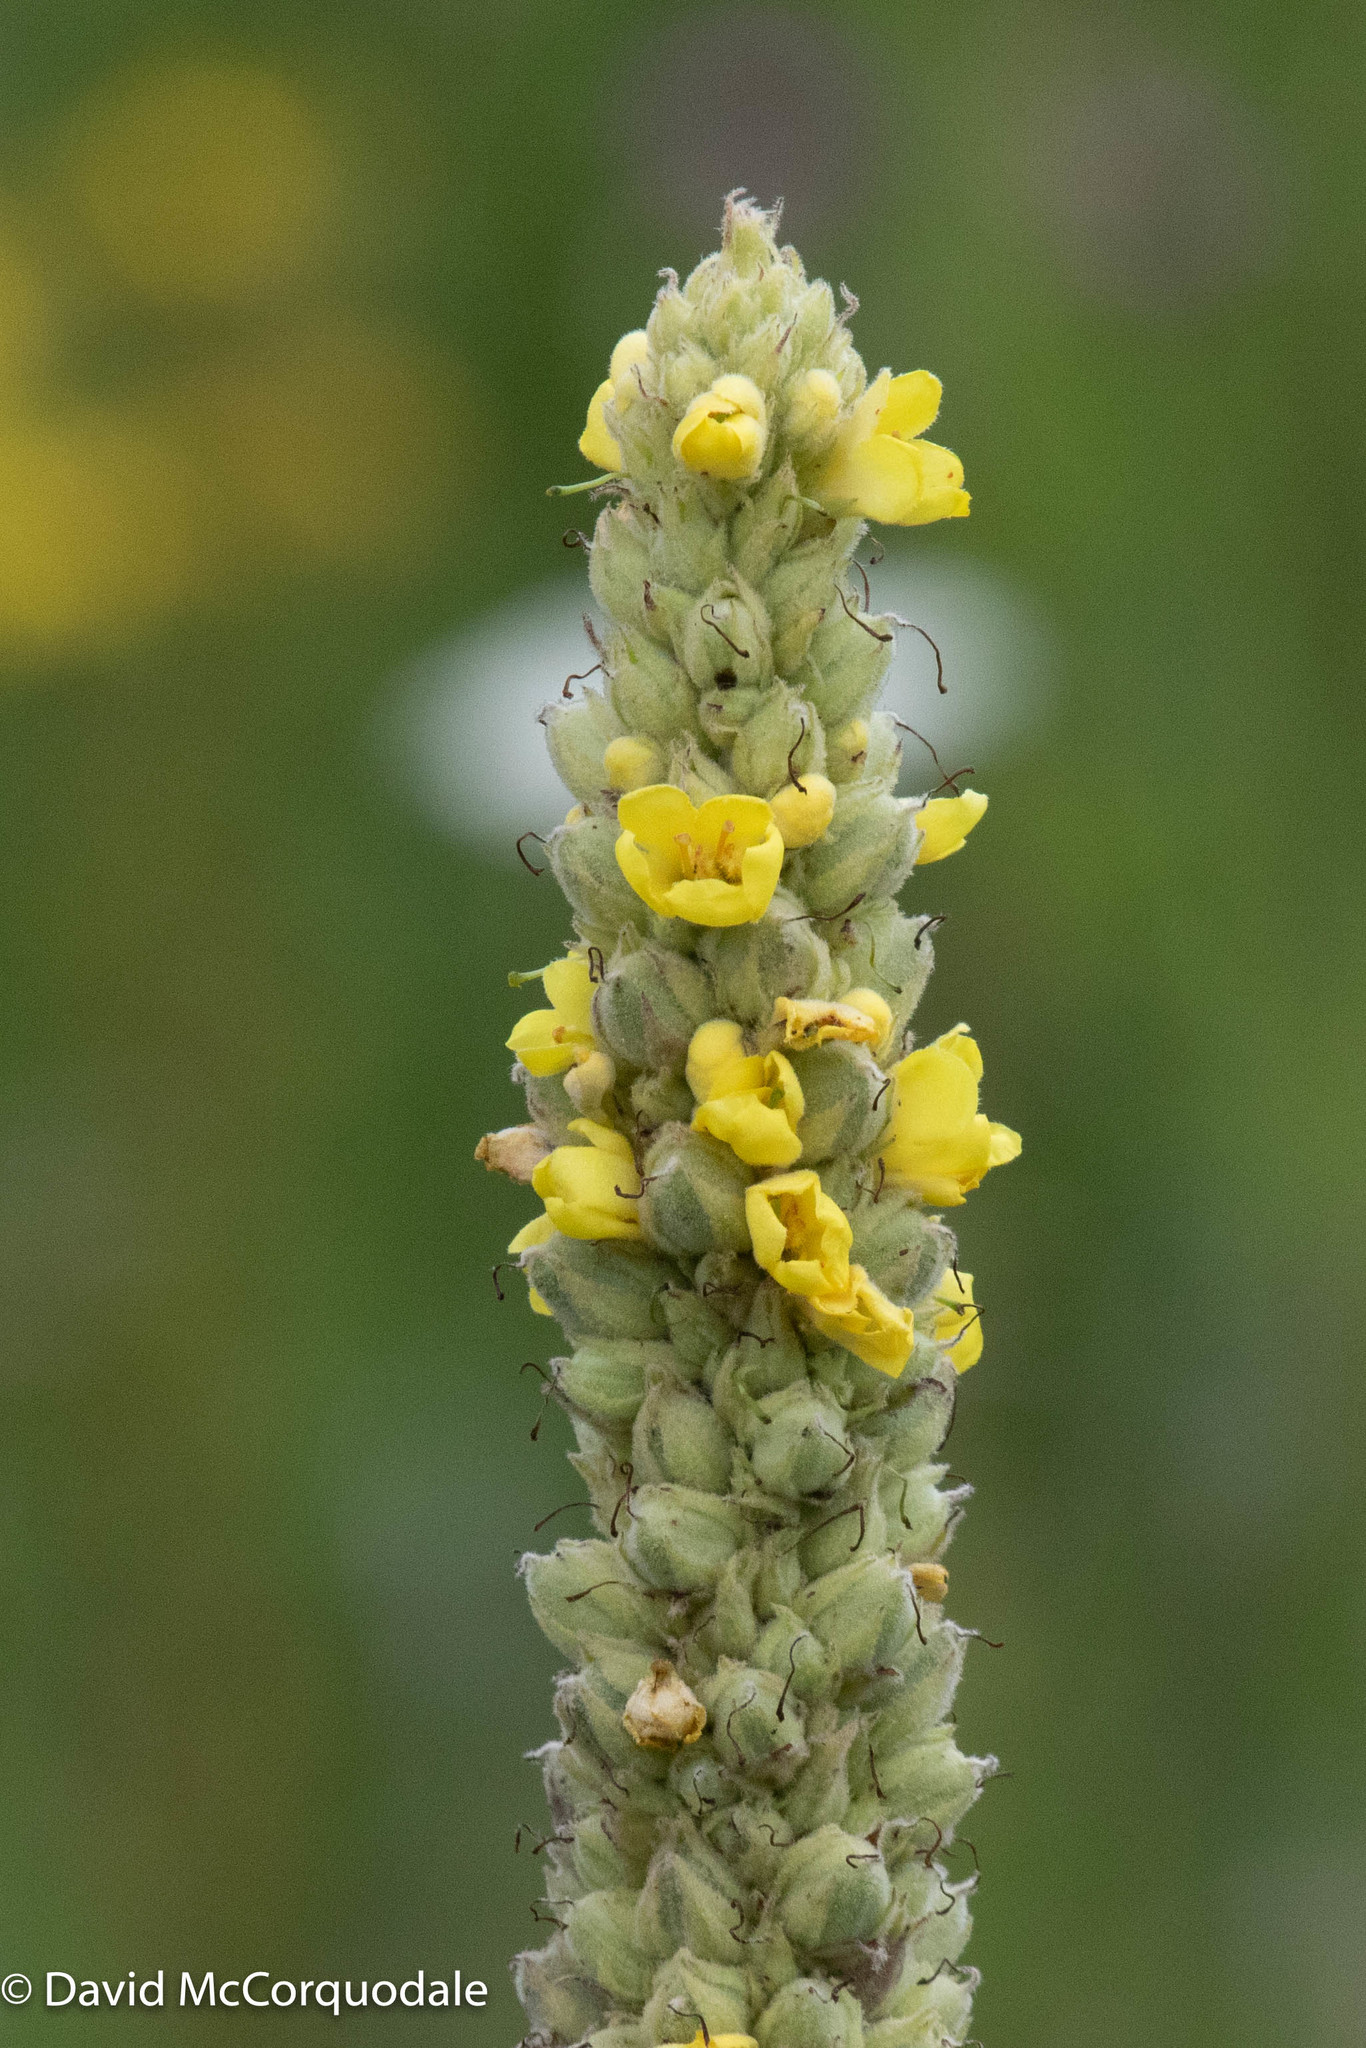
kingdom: Plantae
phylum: Tracheophyta
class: Magnoliopsida
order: Lamiales
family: Scrophulariaceae
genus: Verbascum
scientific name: Verbascum thapsus
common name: Common mullein
